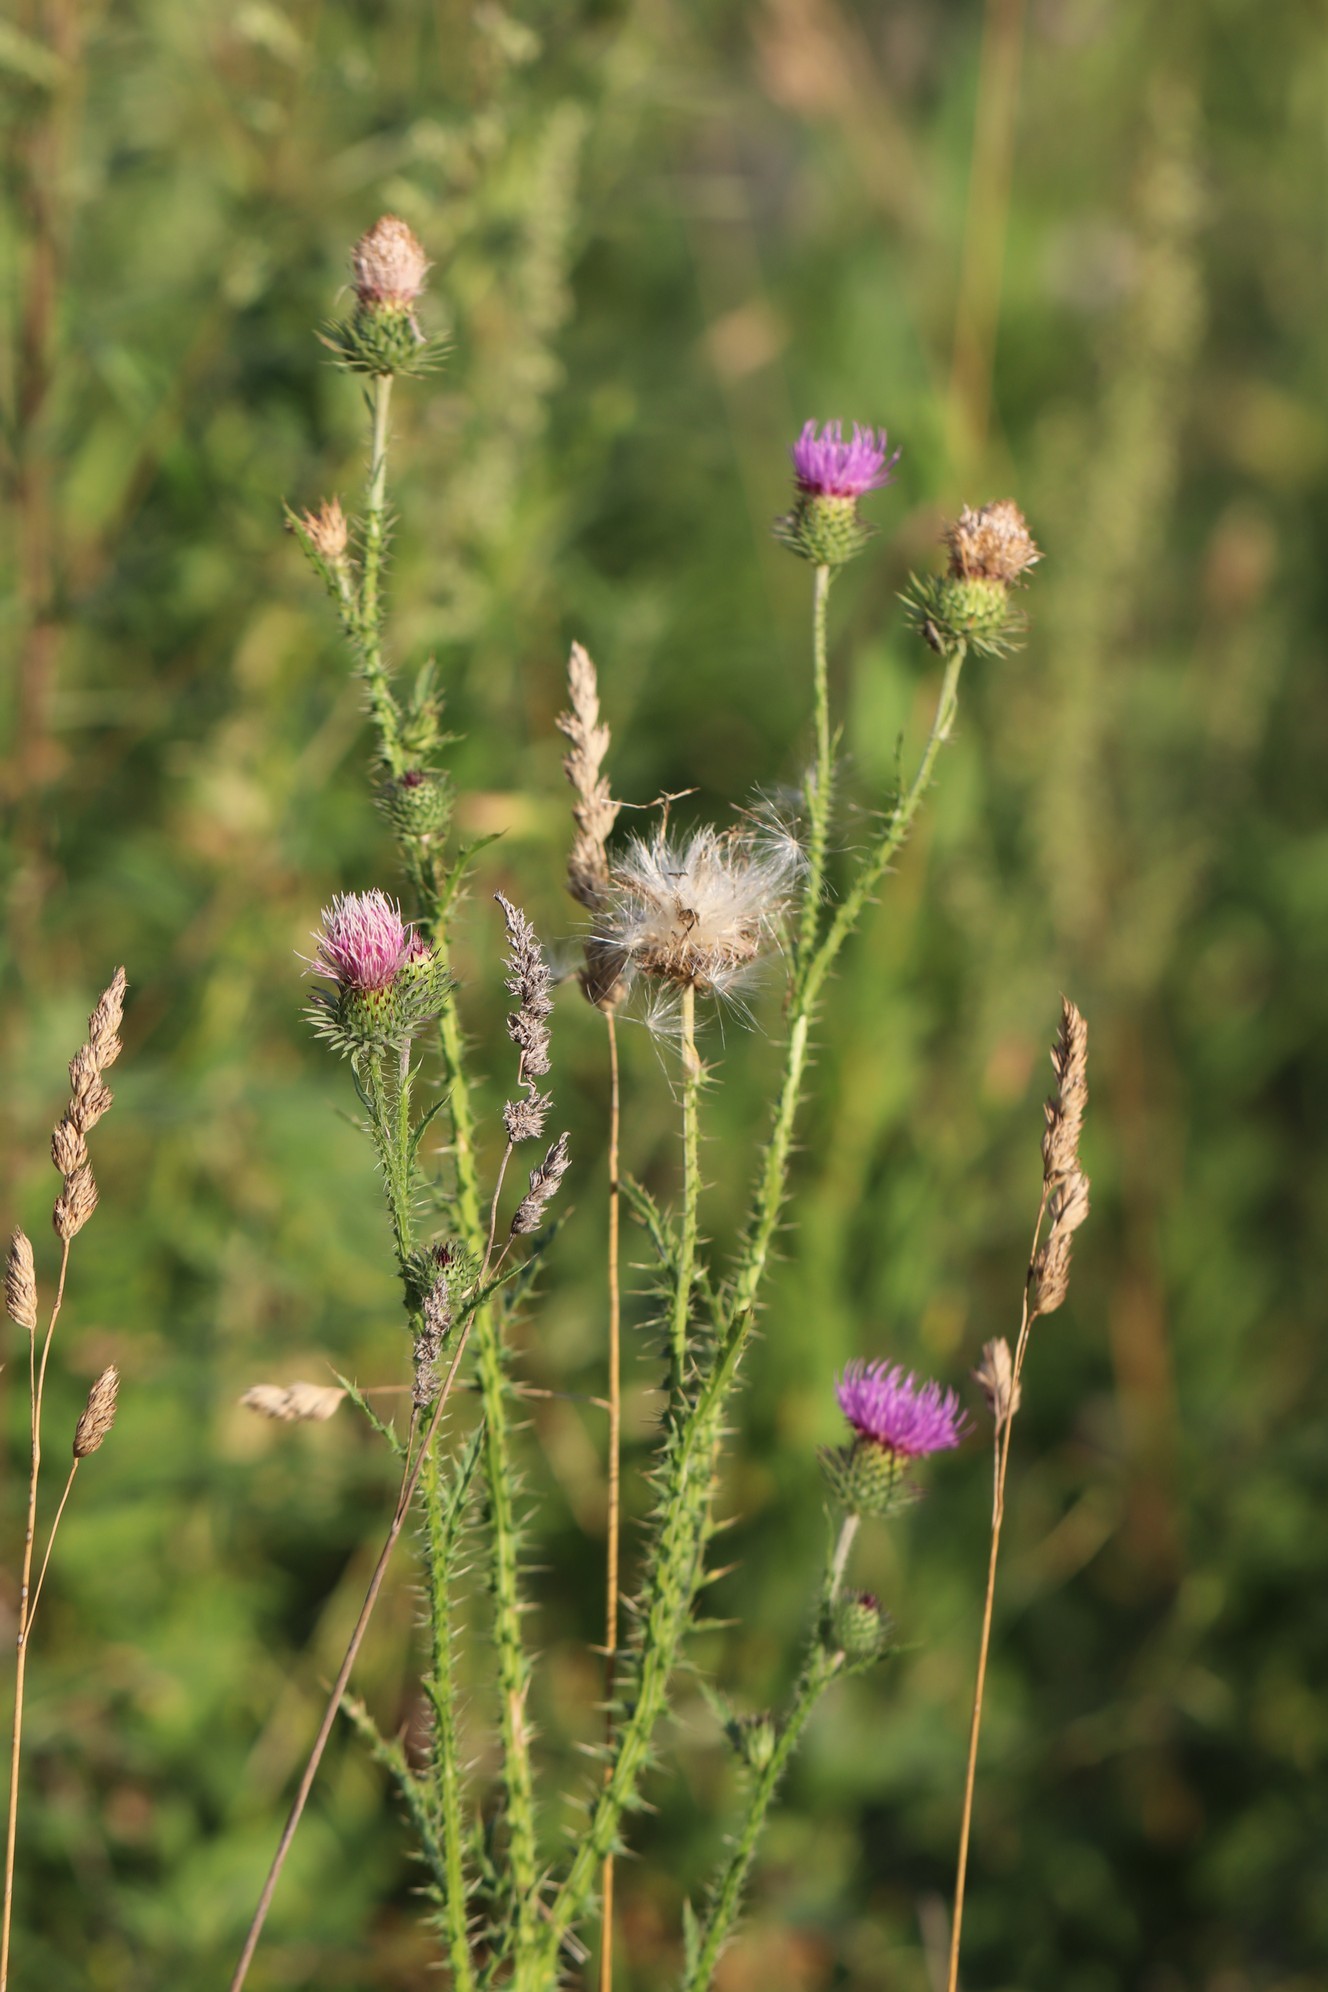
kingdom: Plantae
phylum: Tracheophyta
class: Magnoliopsida
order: Asterales
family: Asteraceae
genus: Carduus
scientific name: Carduus acanthoides
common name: Plumeless thistle
